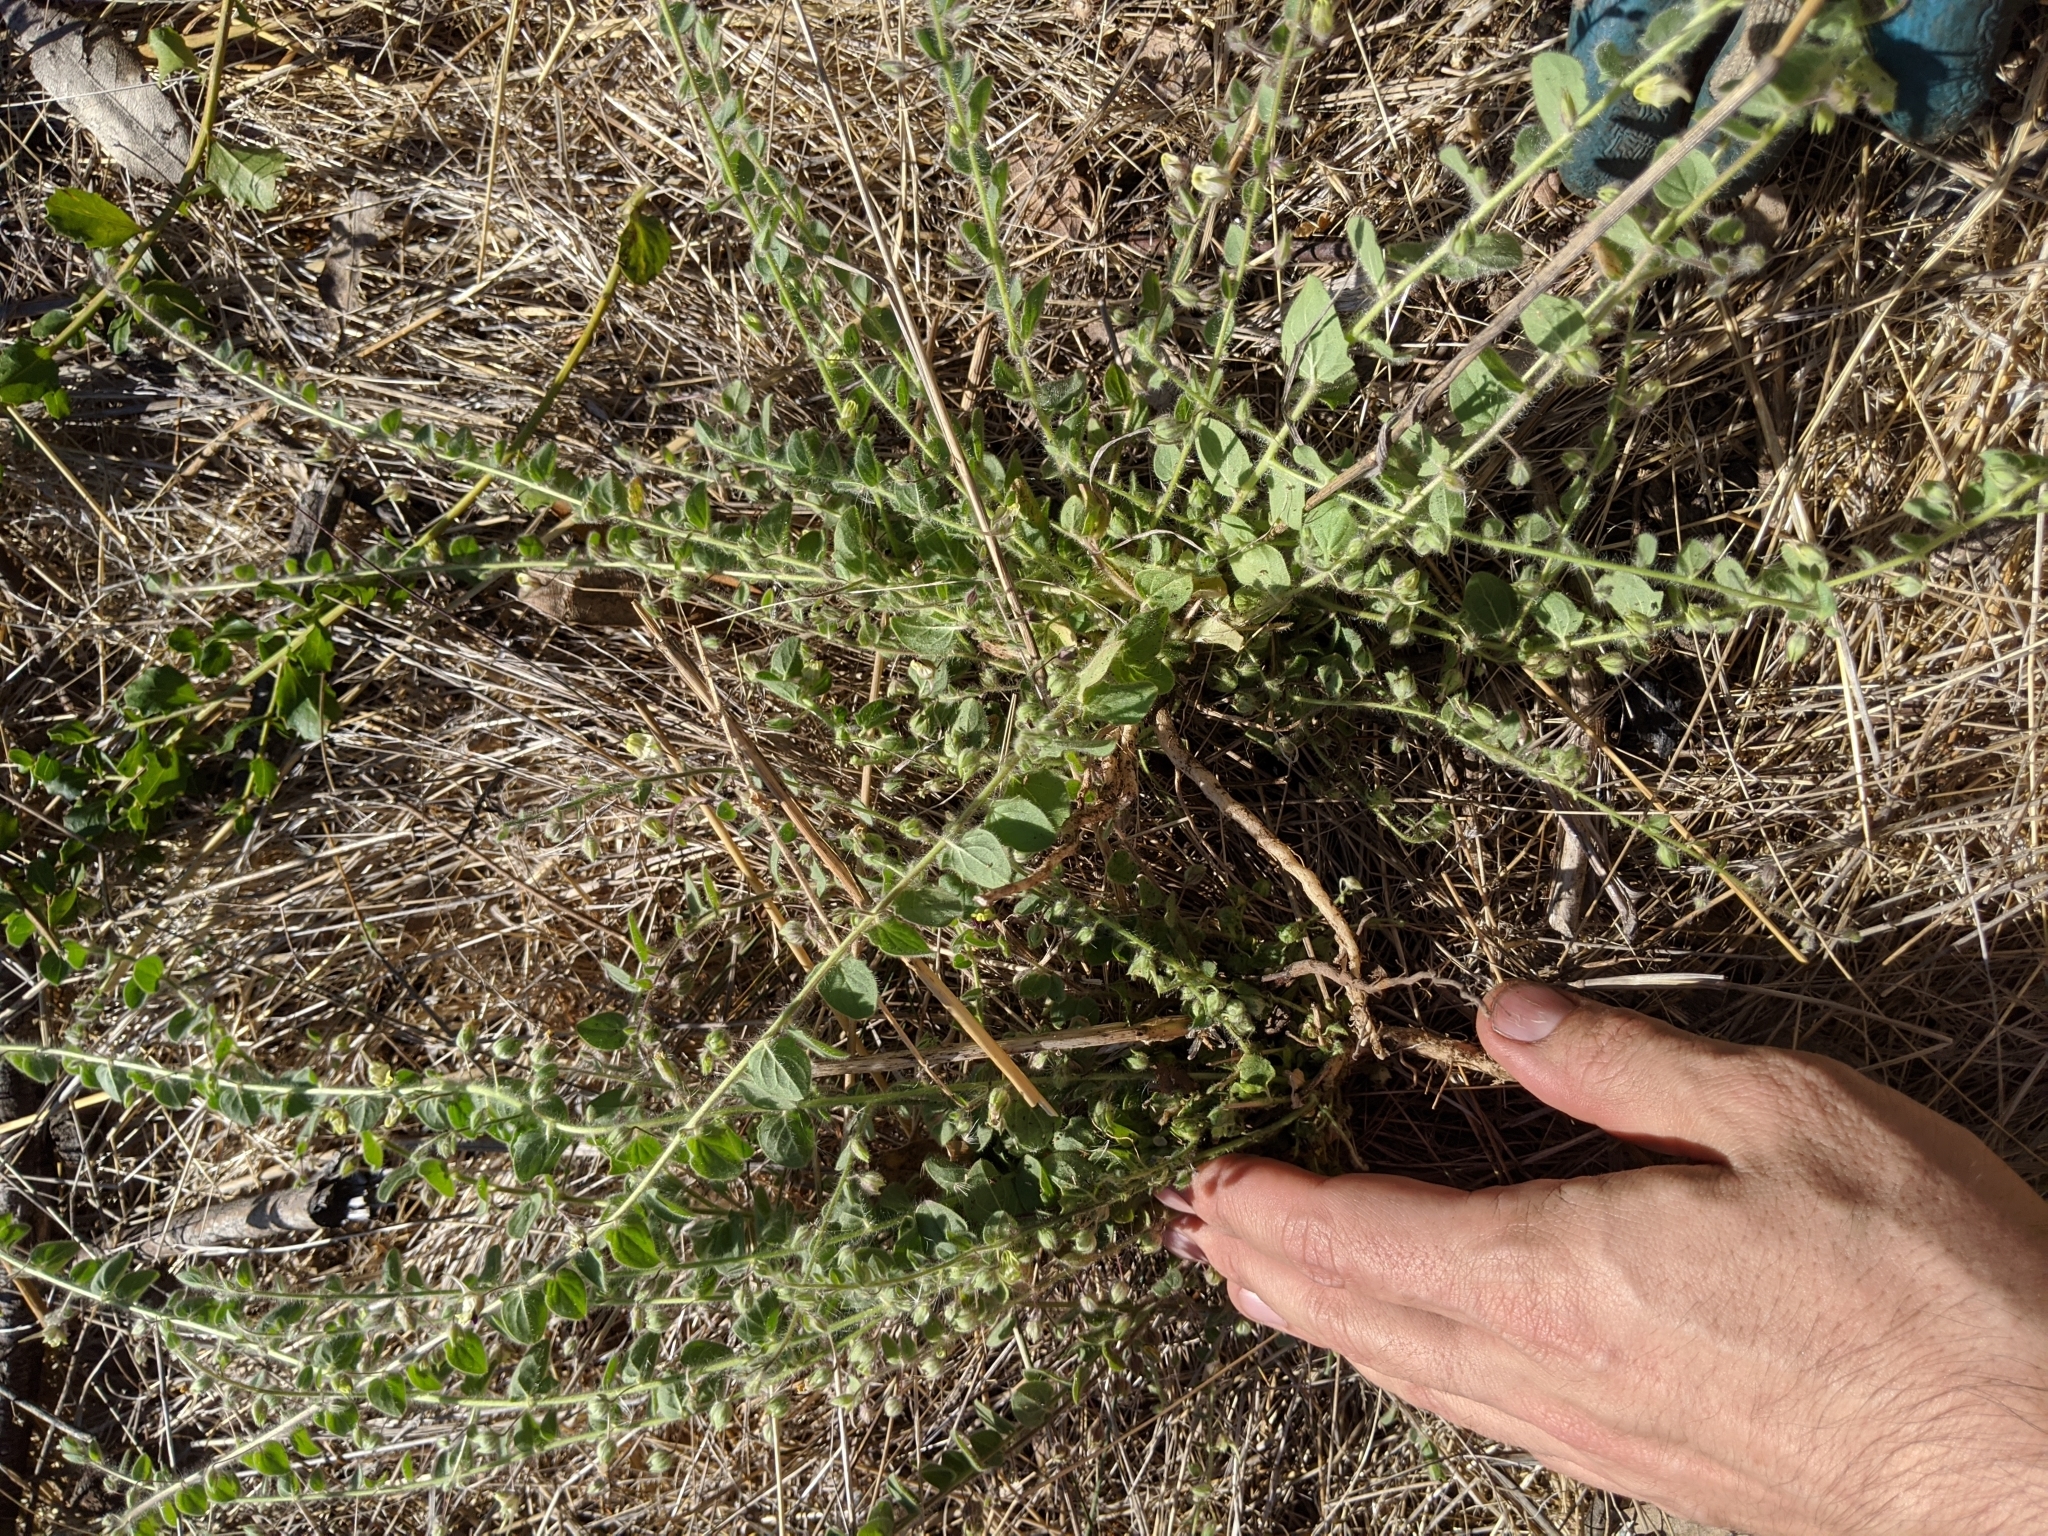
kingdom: Plantae
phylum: Tracheophyta
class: Magnoliopsida
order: Lamiales
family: Plantaginaceae
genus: Kickxia
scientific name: Kickxia elatine
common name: Sharp-leaved fluellen
